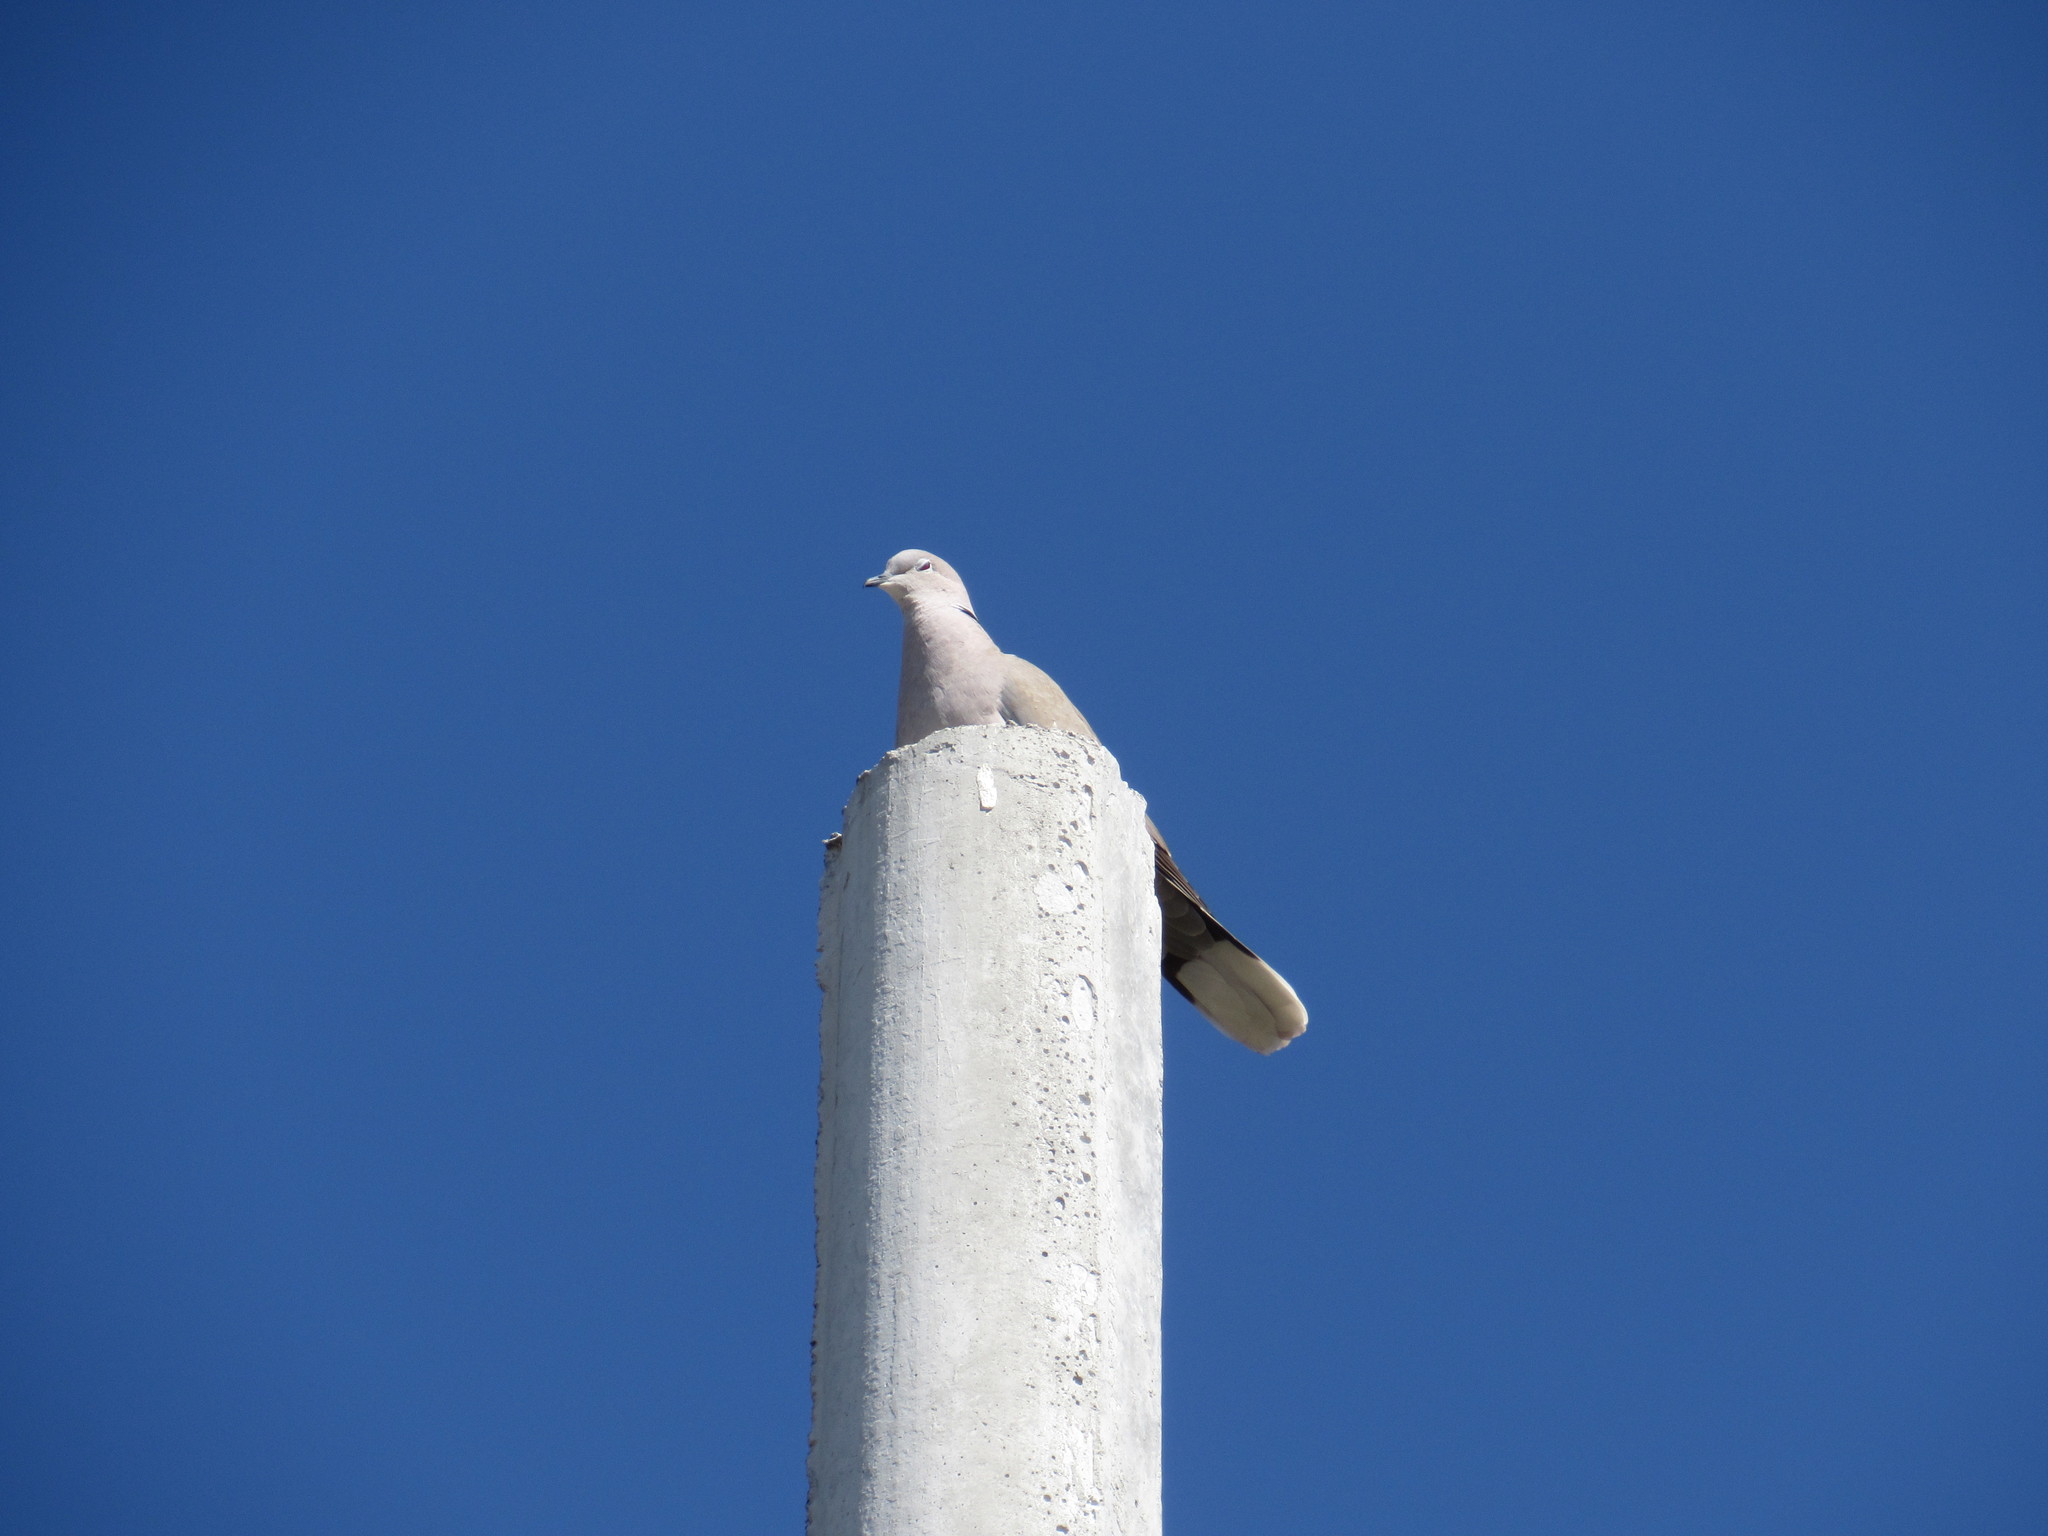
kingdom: Animalia
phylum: Chordata
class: Aves
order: Columbiformes
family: Columbidae
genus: Streptopelia
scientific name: Streptopelia decaocto
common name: Eurasian collared dove
